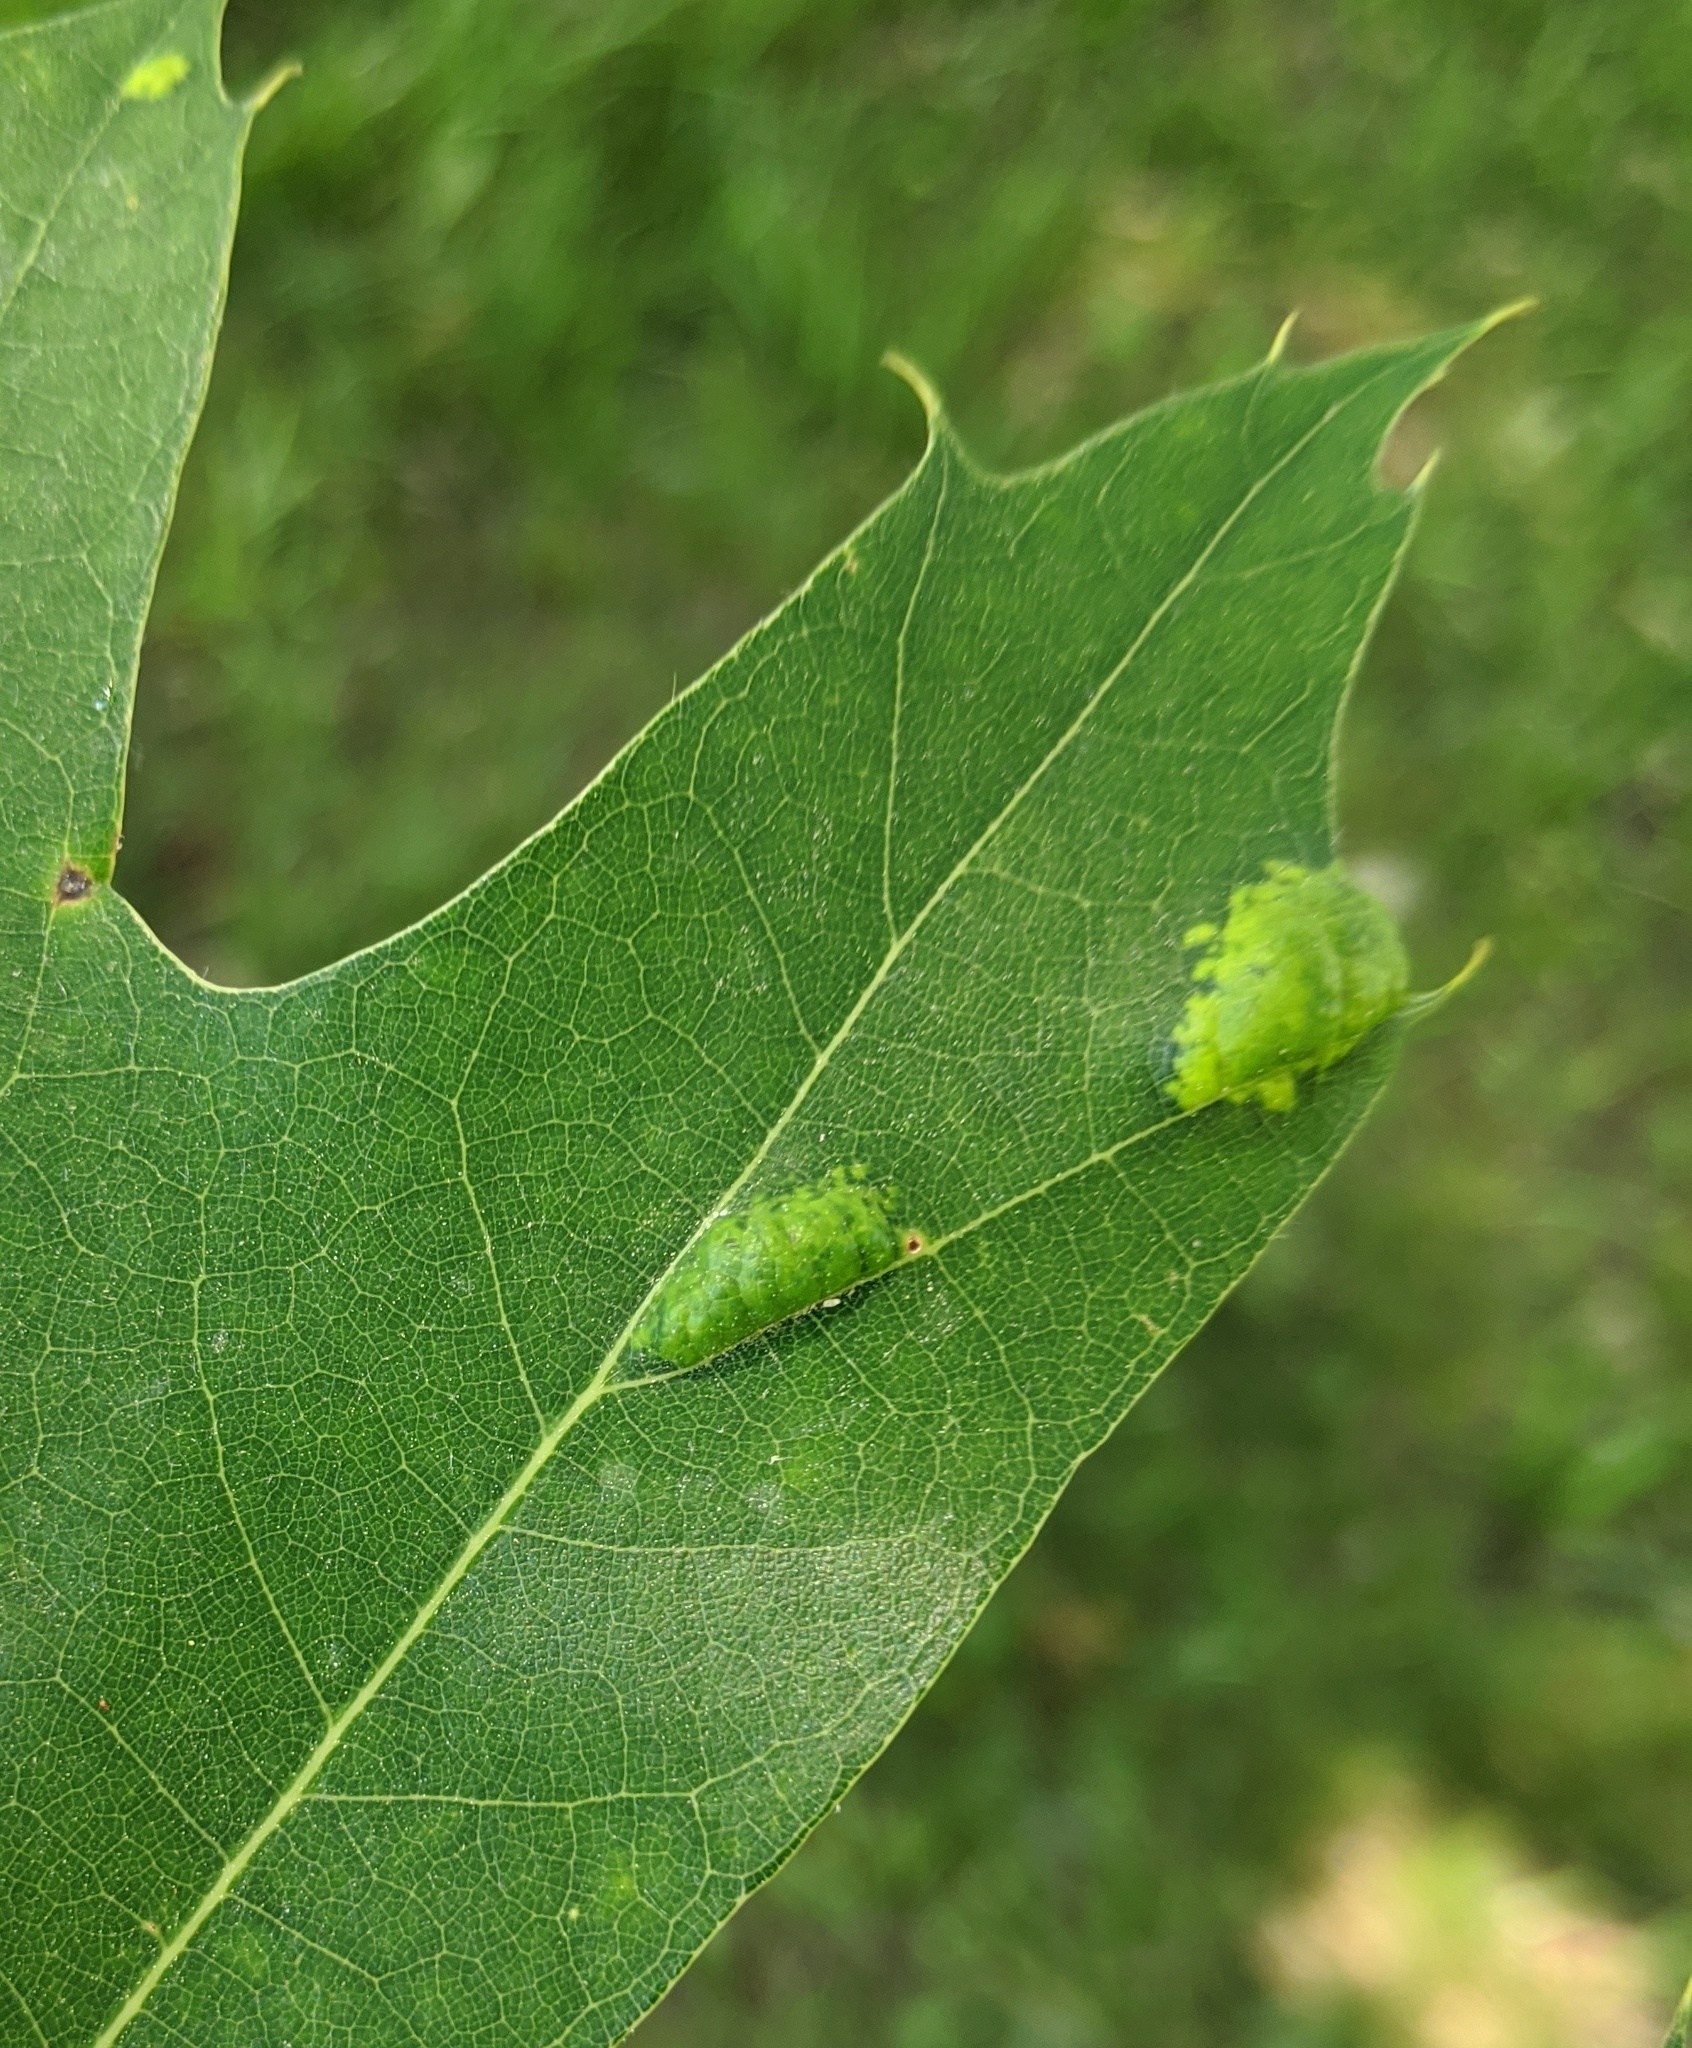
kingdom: Fungi
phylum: Ascomycota
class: Taphrinomycetes
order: Taphrinales
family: Taphrinaceae
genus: Taphrina
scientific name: Taphrina caerulescens
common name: Oak leaf blister
